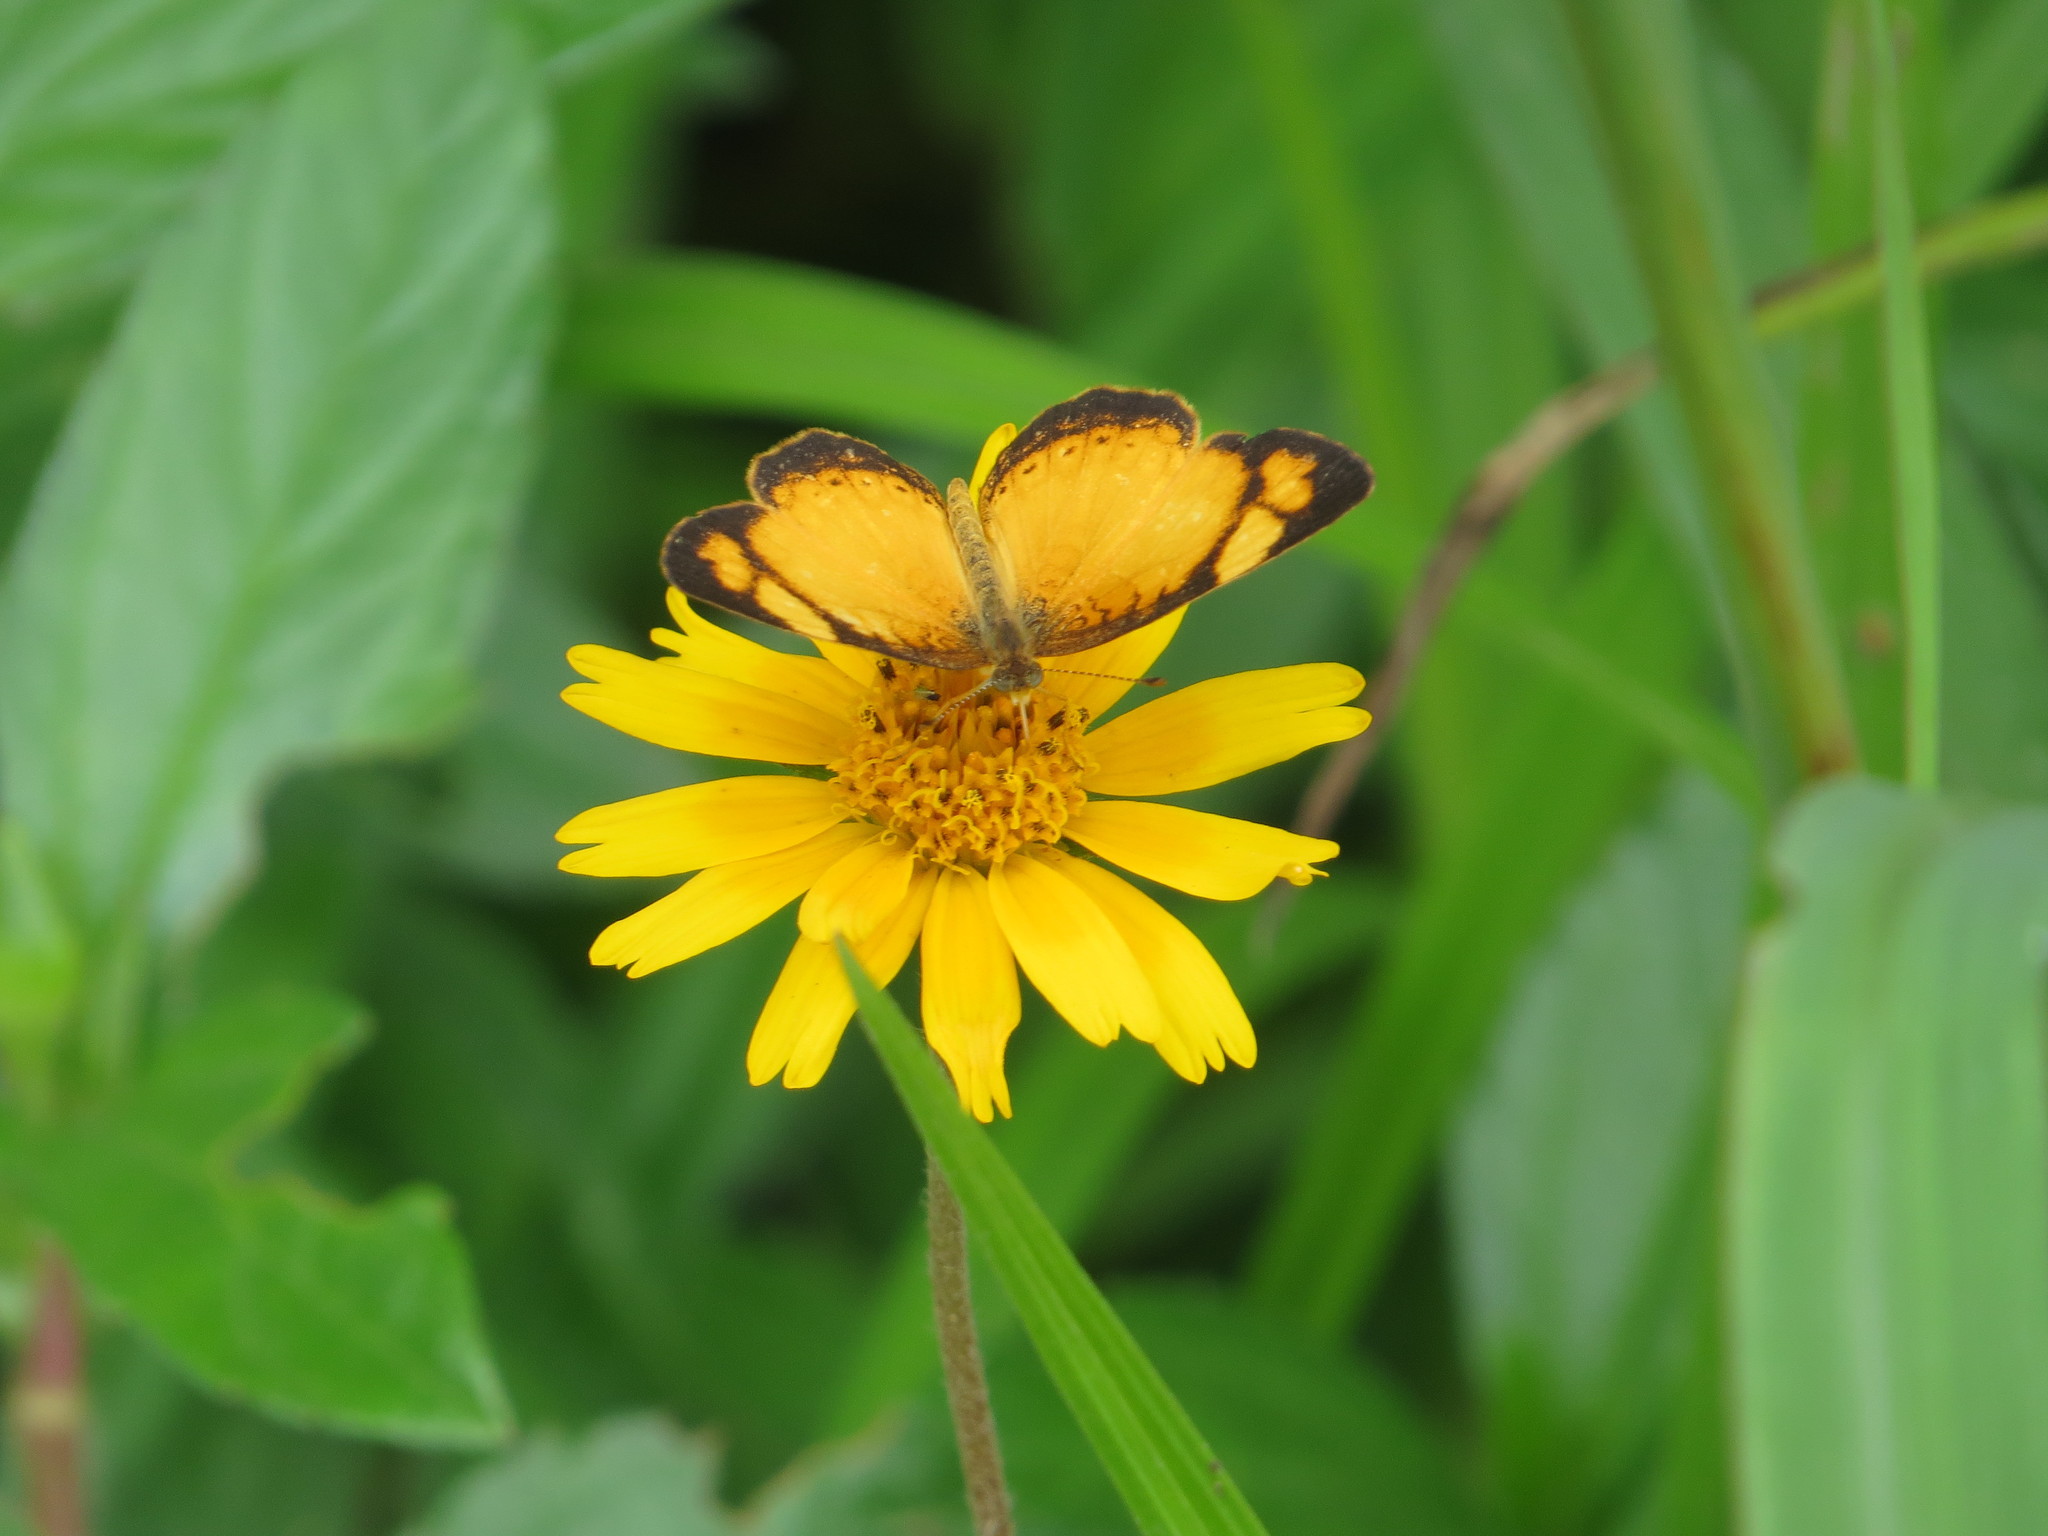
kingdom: Animalia
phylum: Arthropoda
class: Insecta
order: Lepidoptera
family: Nymphalidae
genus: Tegosa
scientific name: Tegosa claudina
